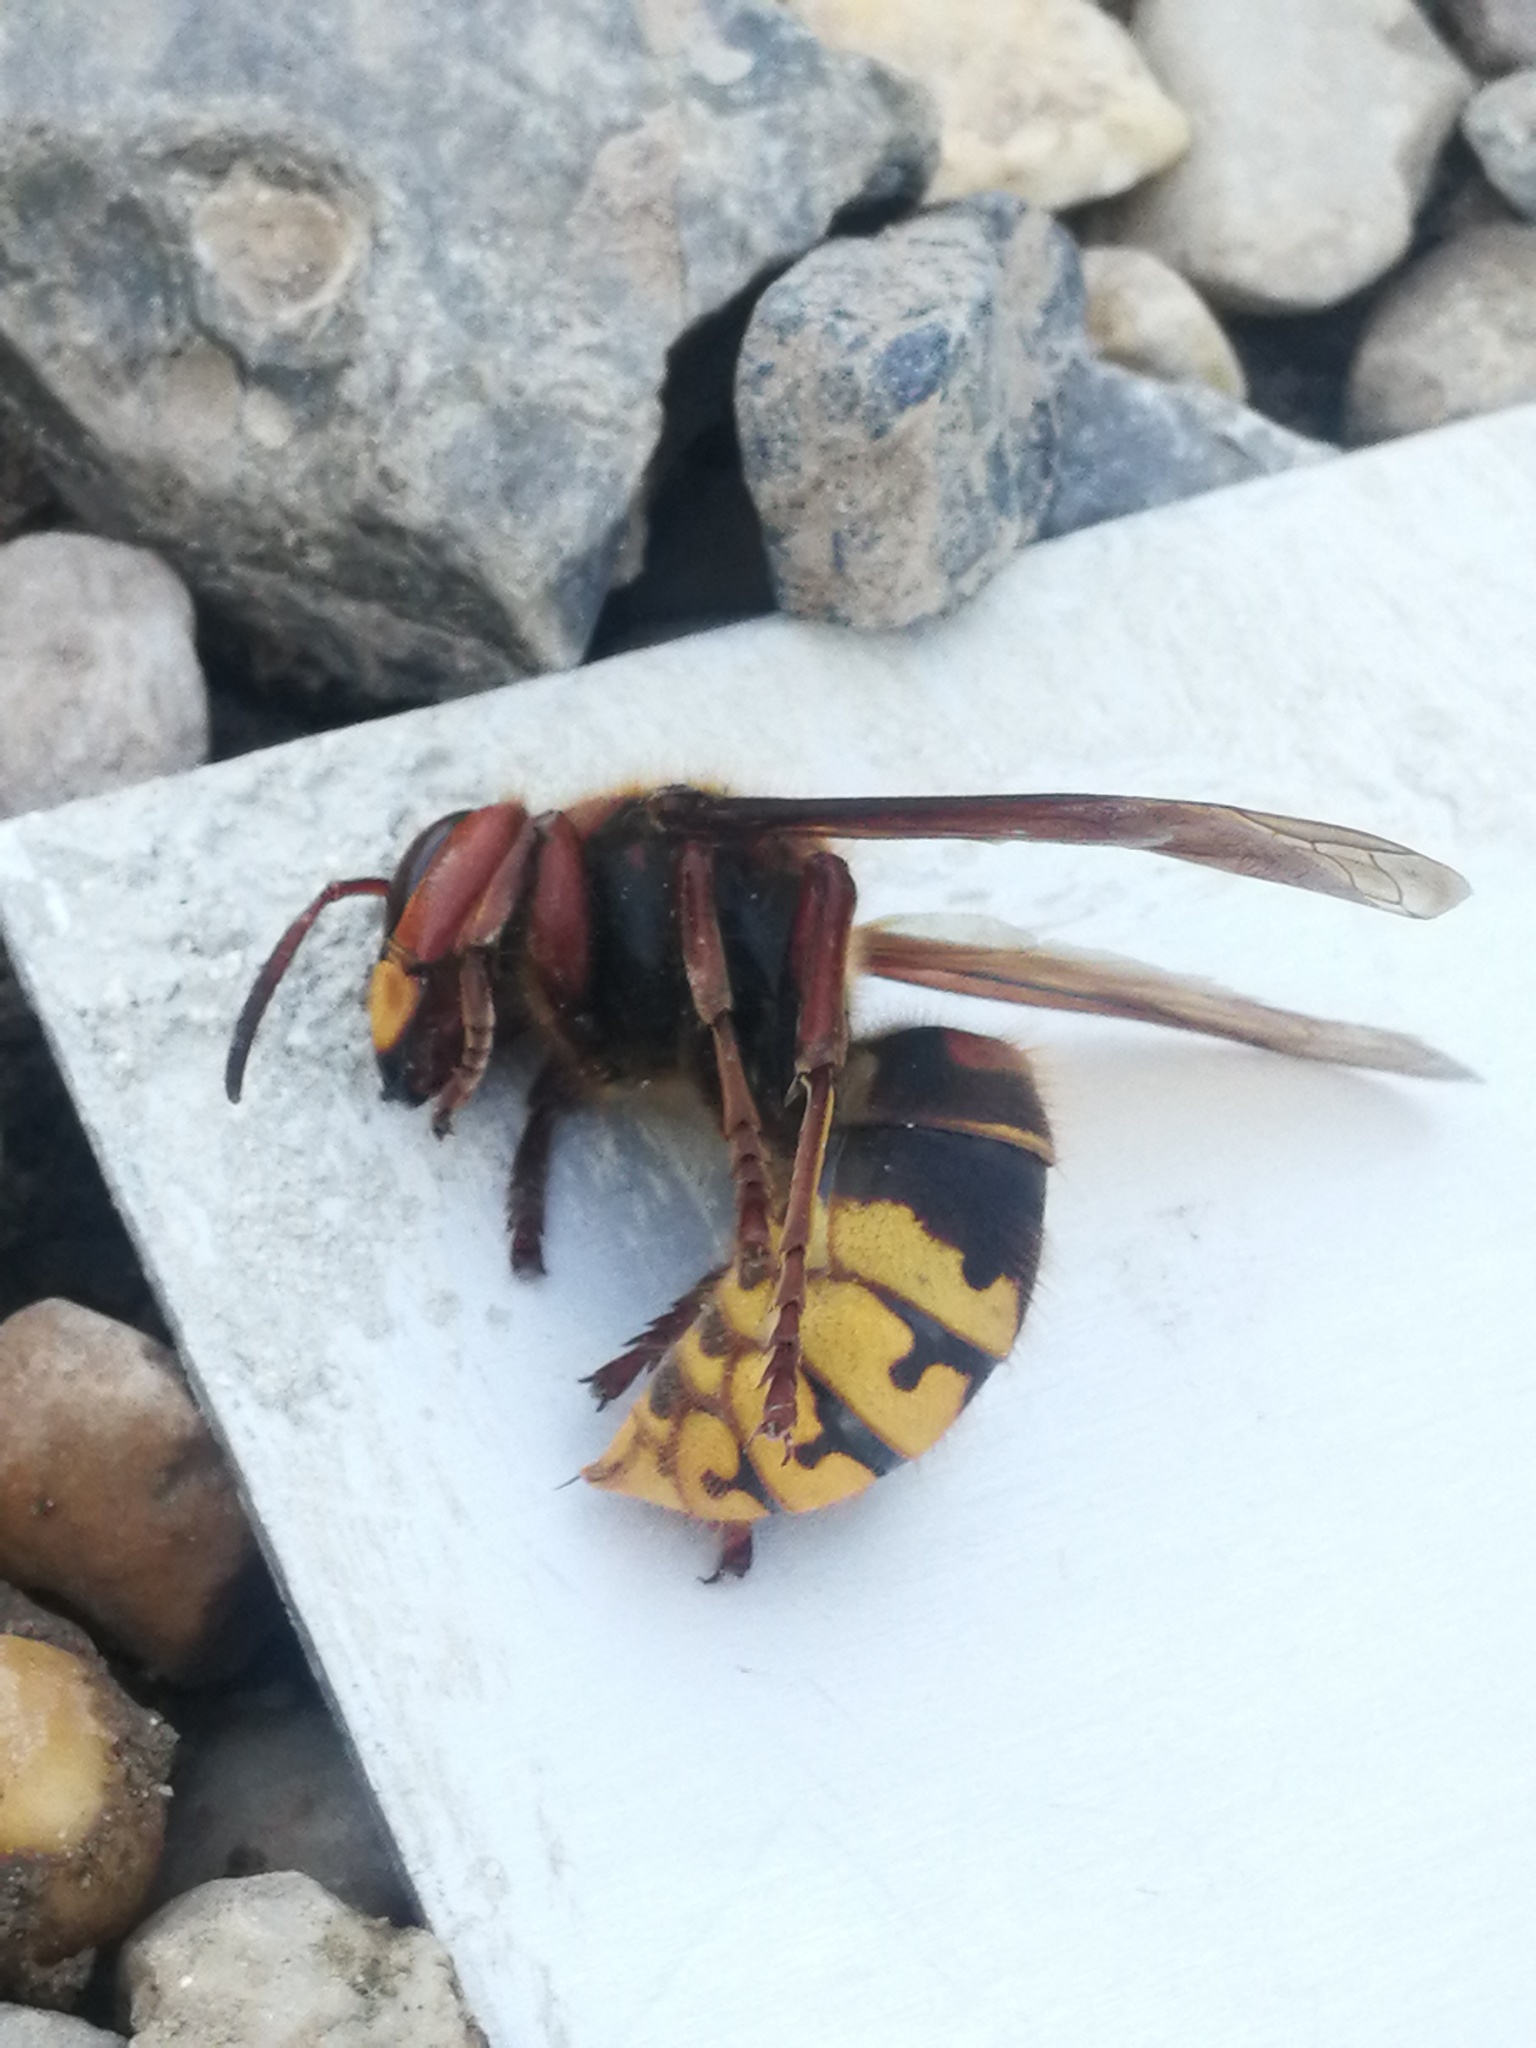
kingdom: Animalia
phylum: Arthropoda
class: Insecta
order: Hymenoptera
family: Vespidae
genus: Vespa
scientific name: Vespa crabro
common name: Hornet
